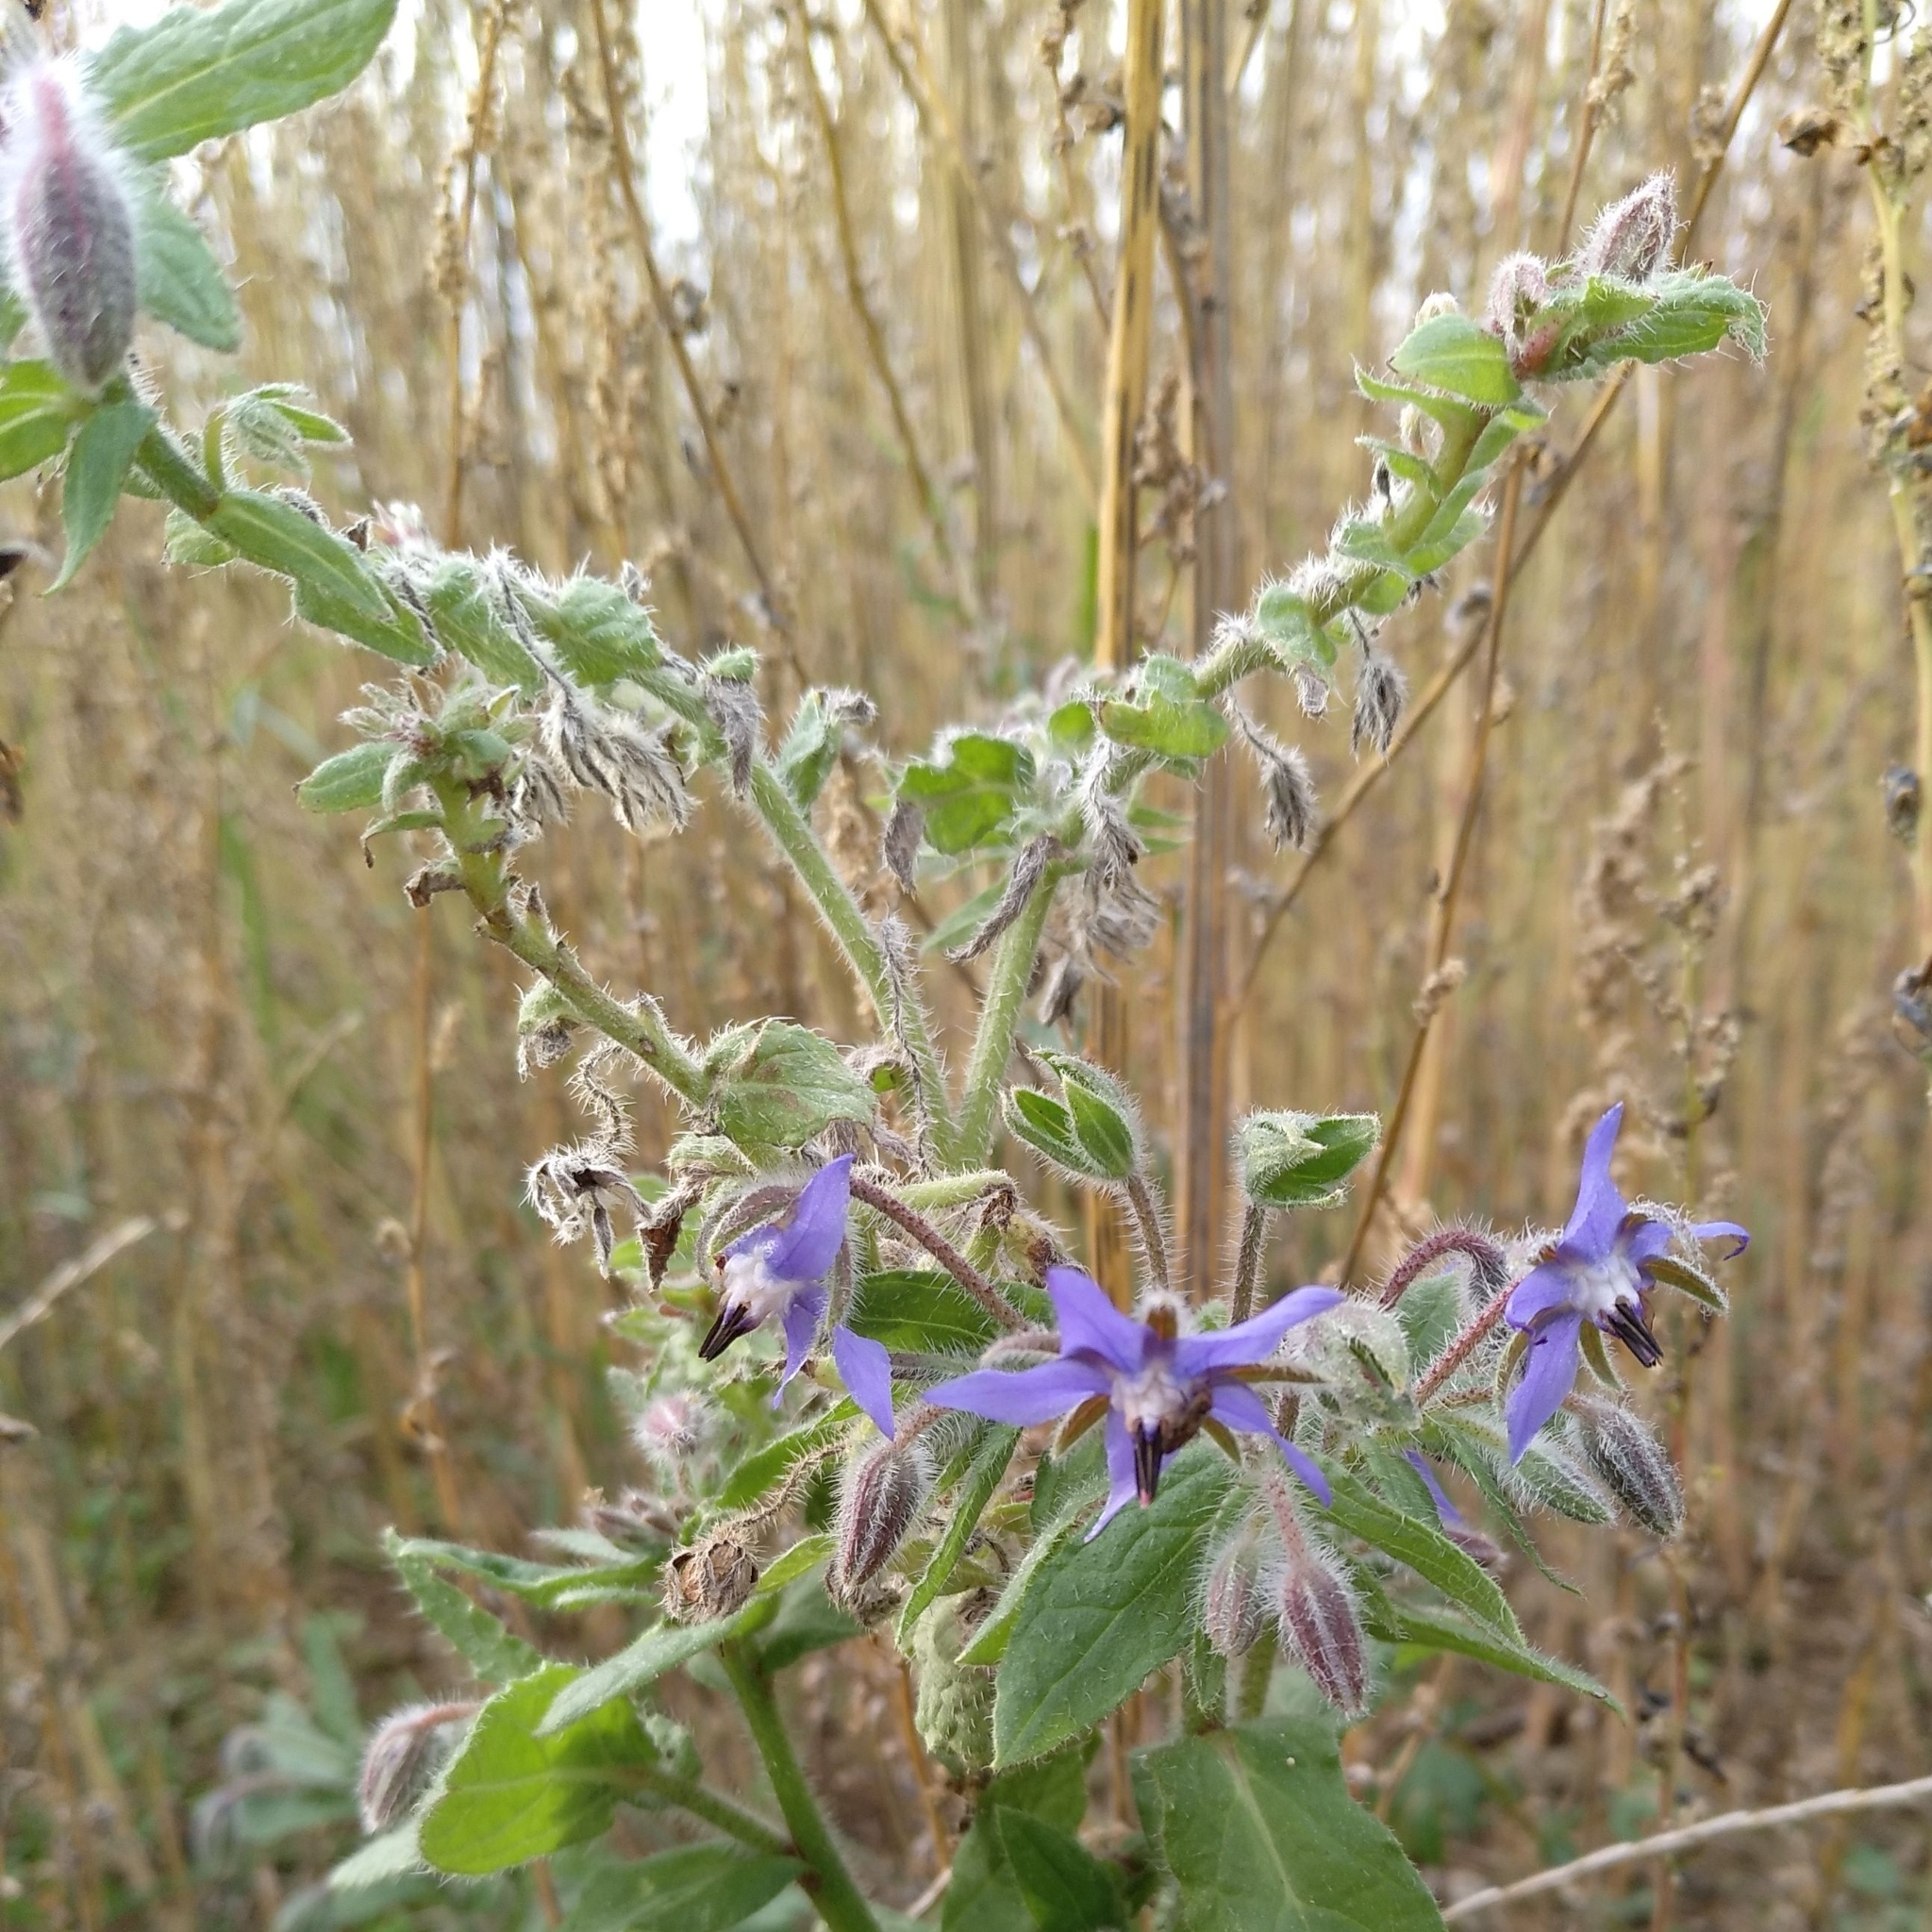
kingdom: Plantae
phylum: Tracheophyta
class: Magnoliopsida
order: Boraginales
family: Boraginaceae
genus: Borago
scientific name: Borago officinalis
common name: Borage
